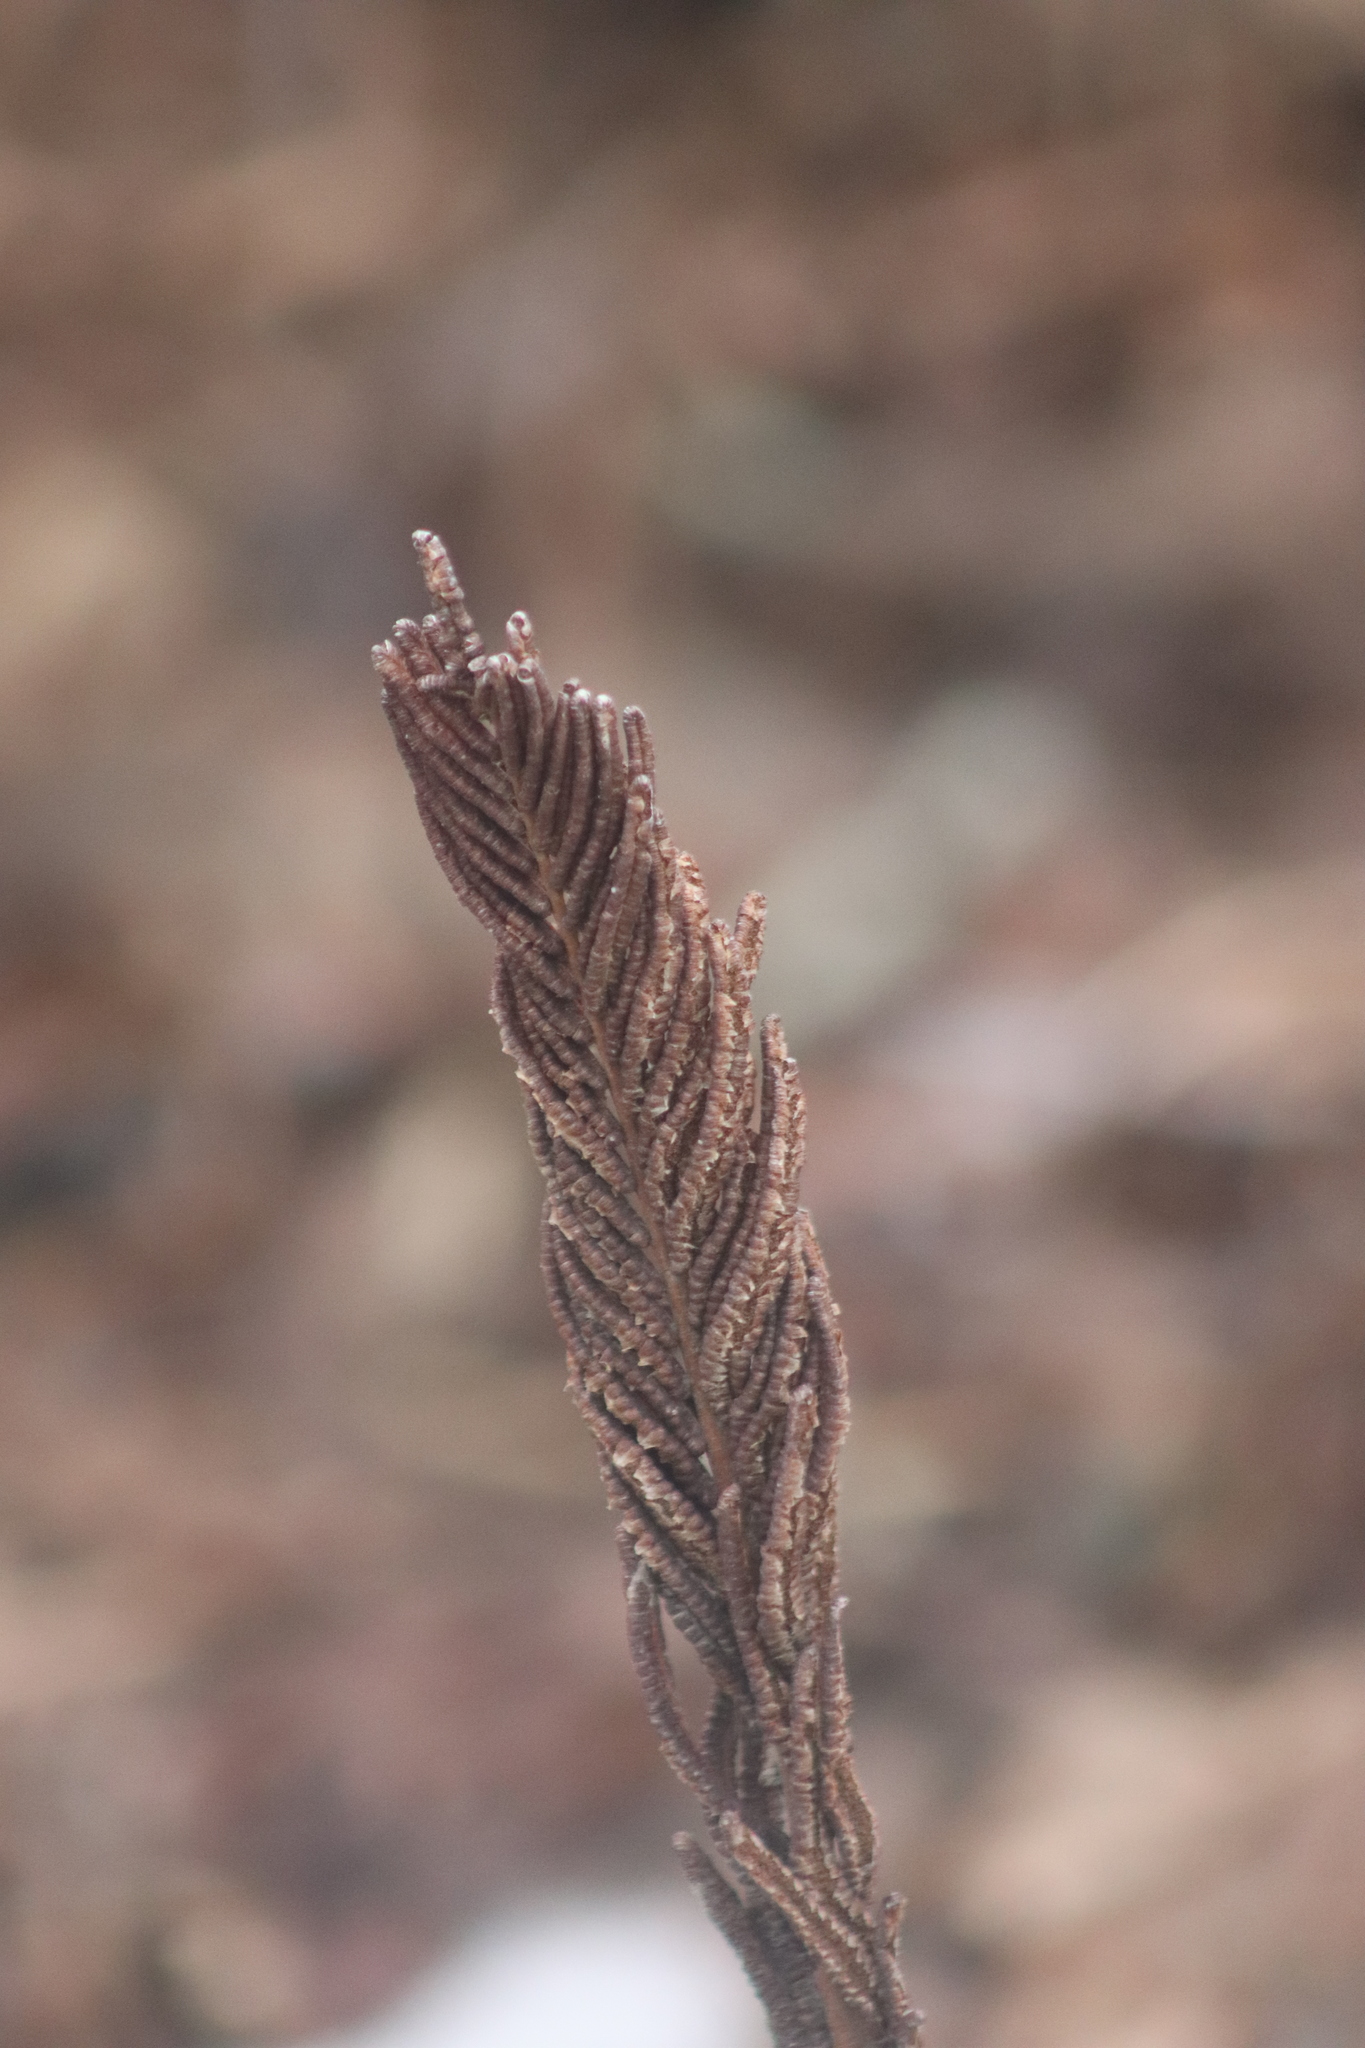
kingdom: Plantae
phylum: Tracheophyta
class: Polypodiopsida
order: Polypodiales
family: Onocleaceae
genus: Matteuccia
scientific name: Matteuccia struthiopteris
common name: Ostrich fern
